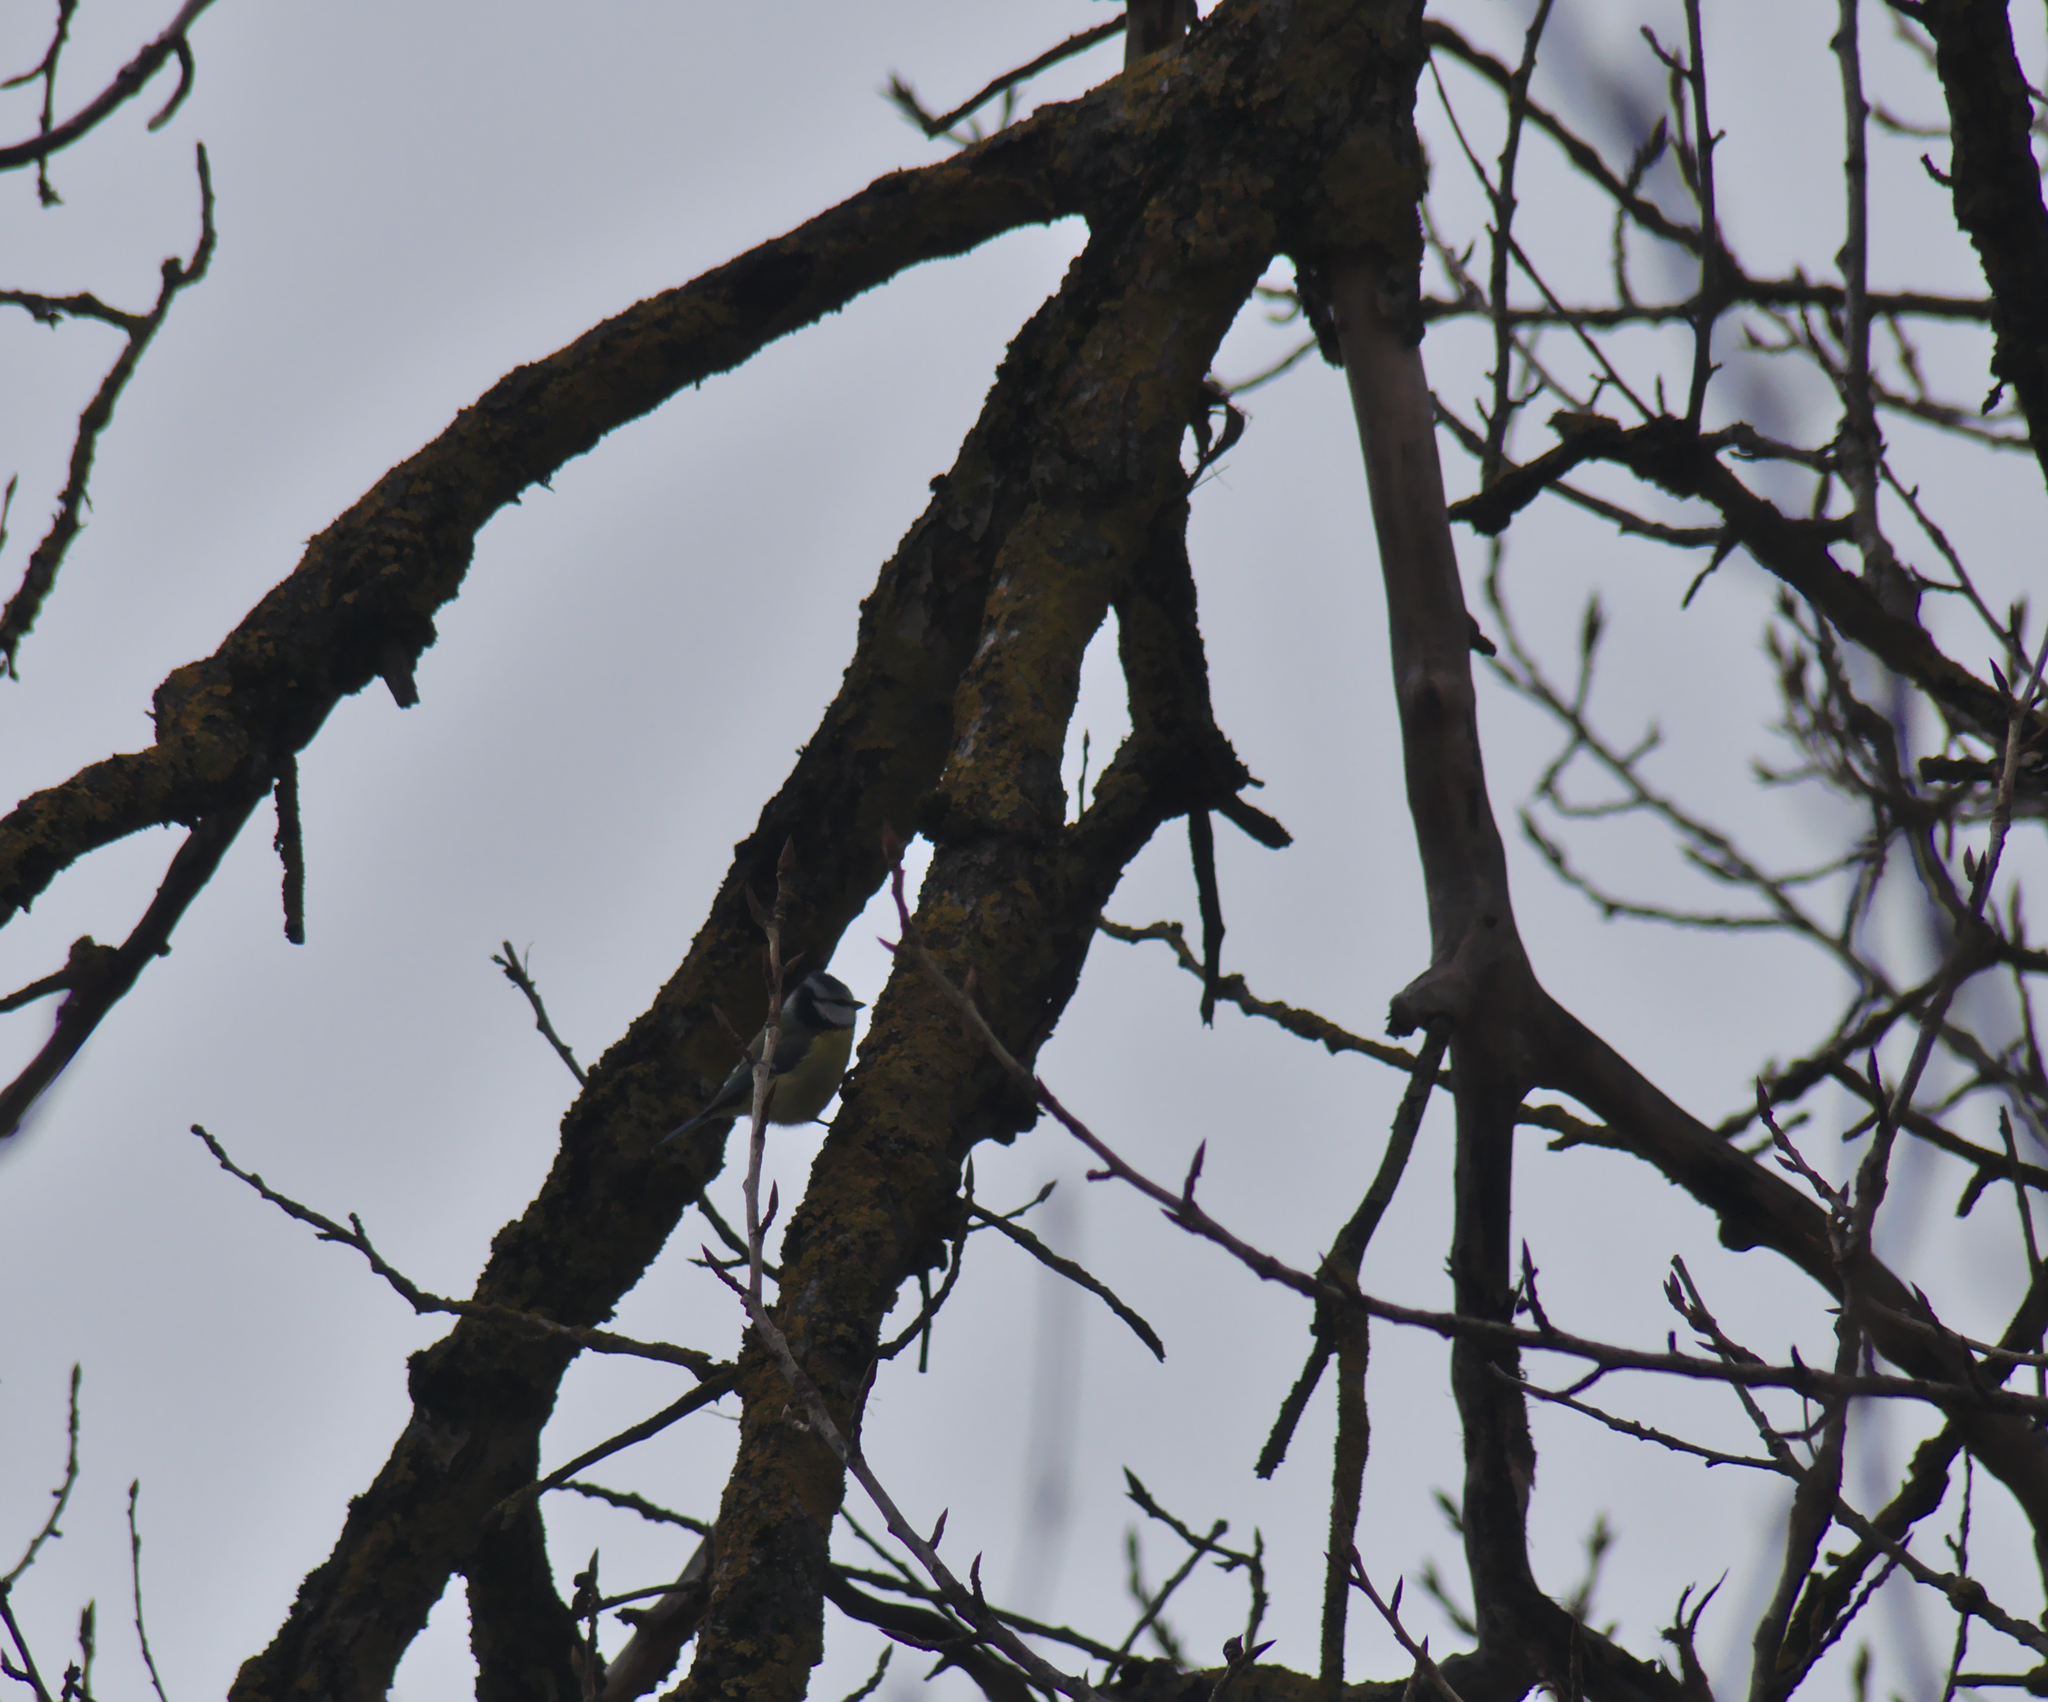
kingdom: Animalia
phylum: Chordata
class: Aves
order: Passeriformes
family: Paridae
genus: Cyanistes
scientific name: Cyanistes caeruleus
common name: Eurasian blue tit
